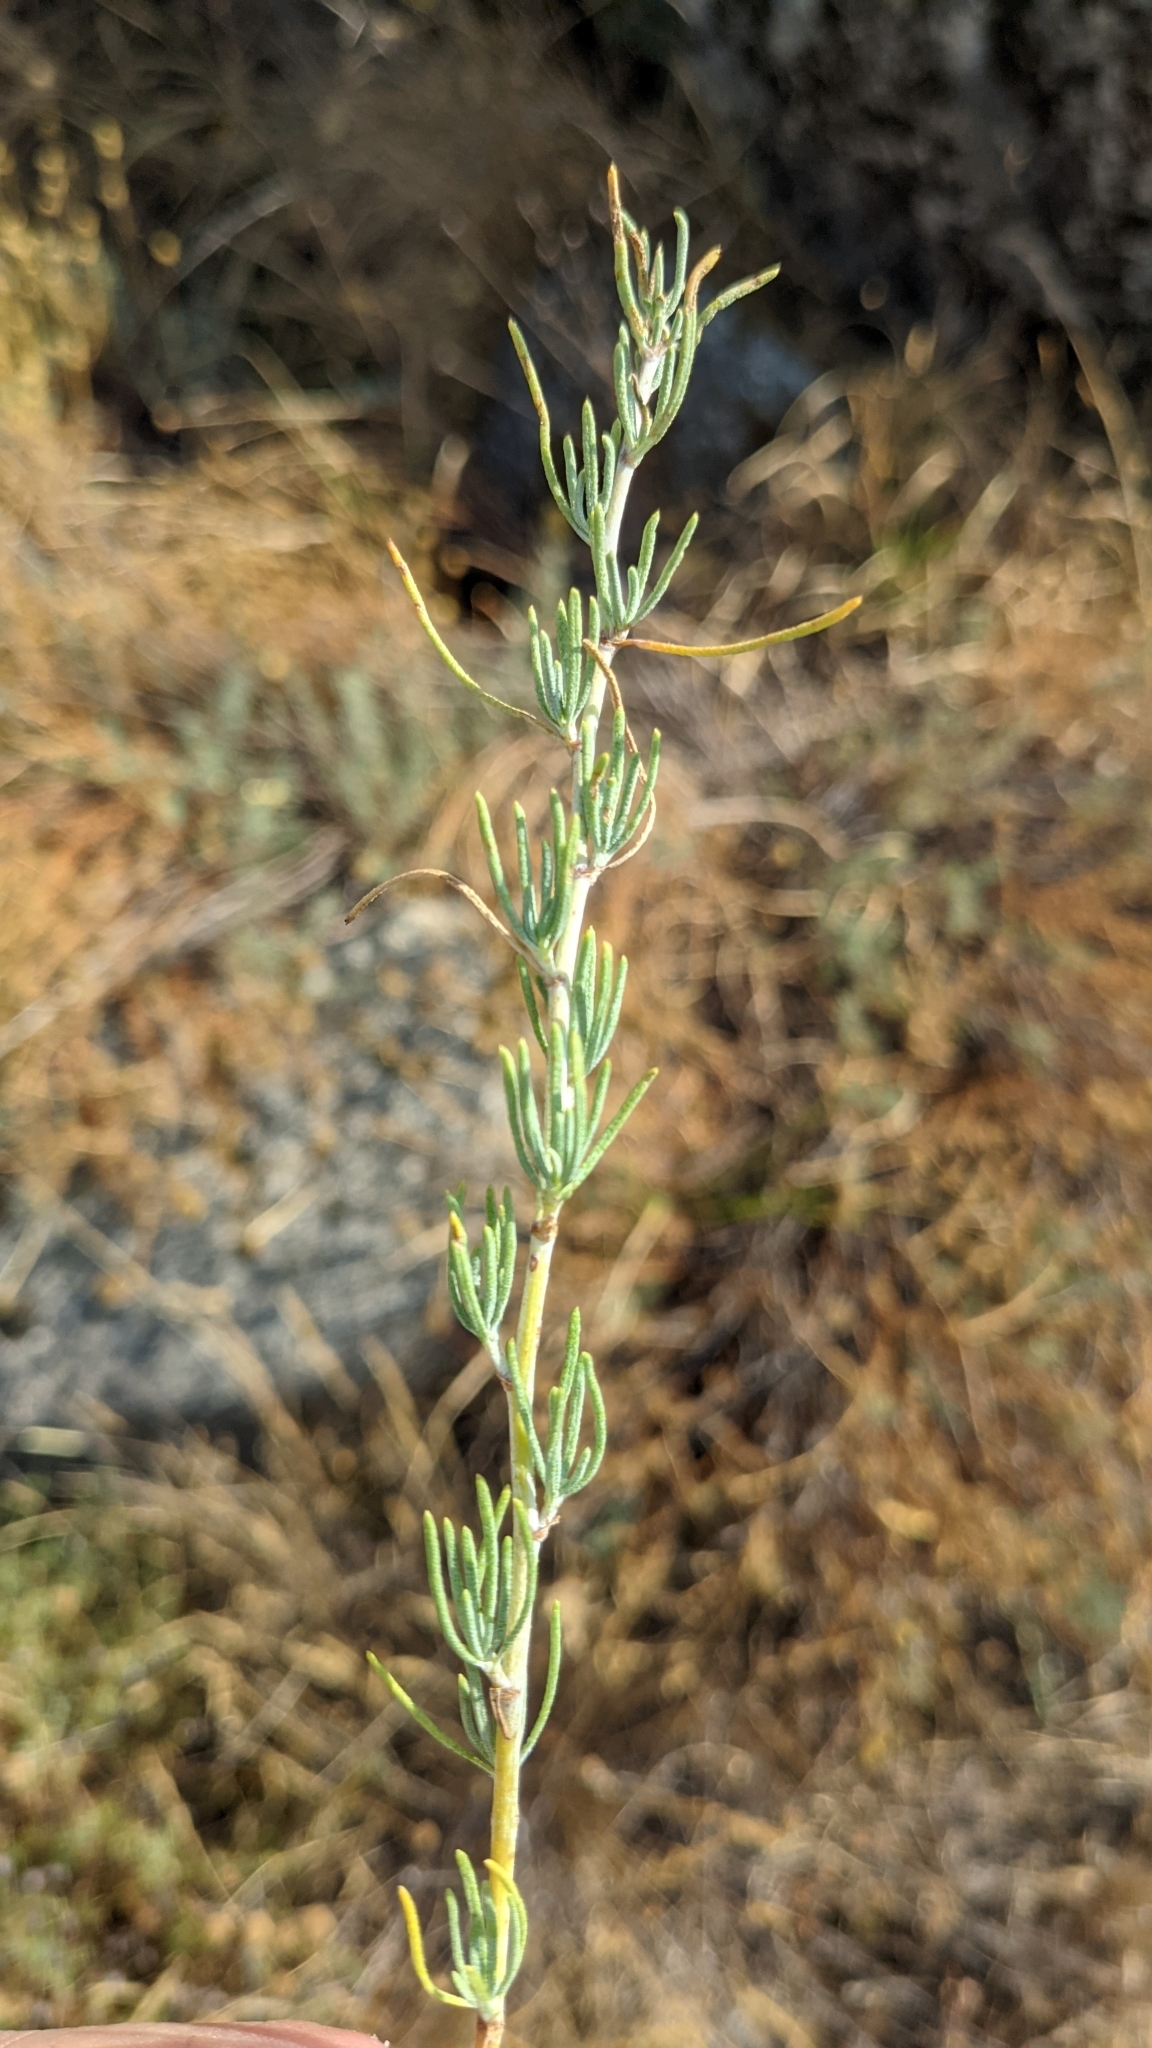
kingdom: Plantae
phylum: Tracheophyta
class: Magnoliopsida
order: Asterales
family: Asteraceae
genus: Santolina
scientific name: Santolina rosmarinifolia
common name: Holy-flax
